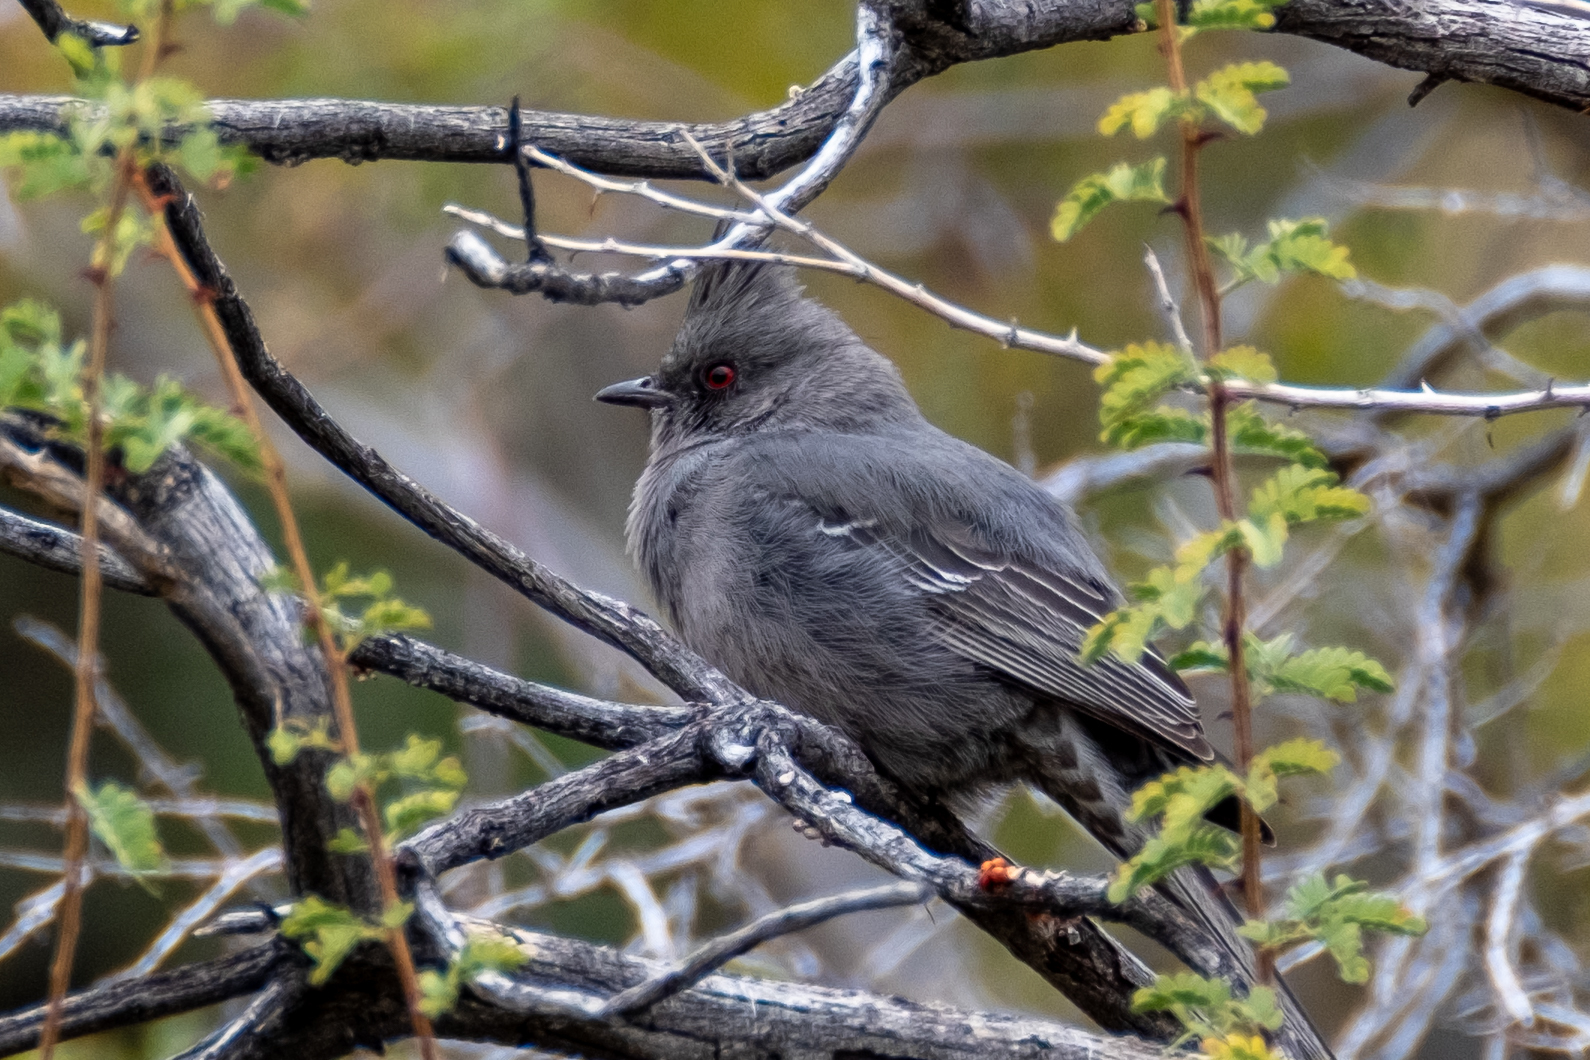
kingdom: Animalia
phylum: Chordata
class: Aves
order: Passeriformes
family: Ptilogonatidae
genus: Phainopepla
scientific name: Phainopepla nitens
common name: Phainopepla
